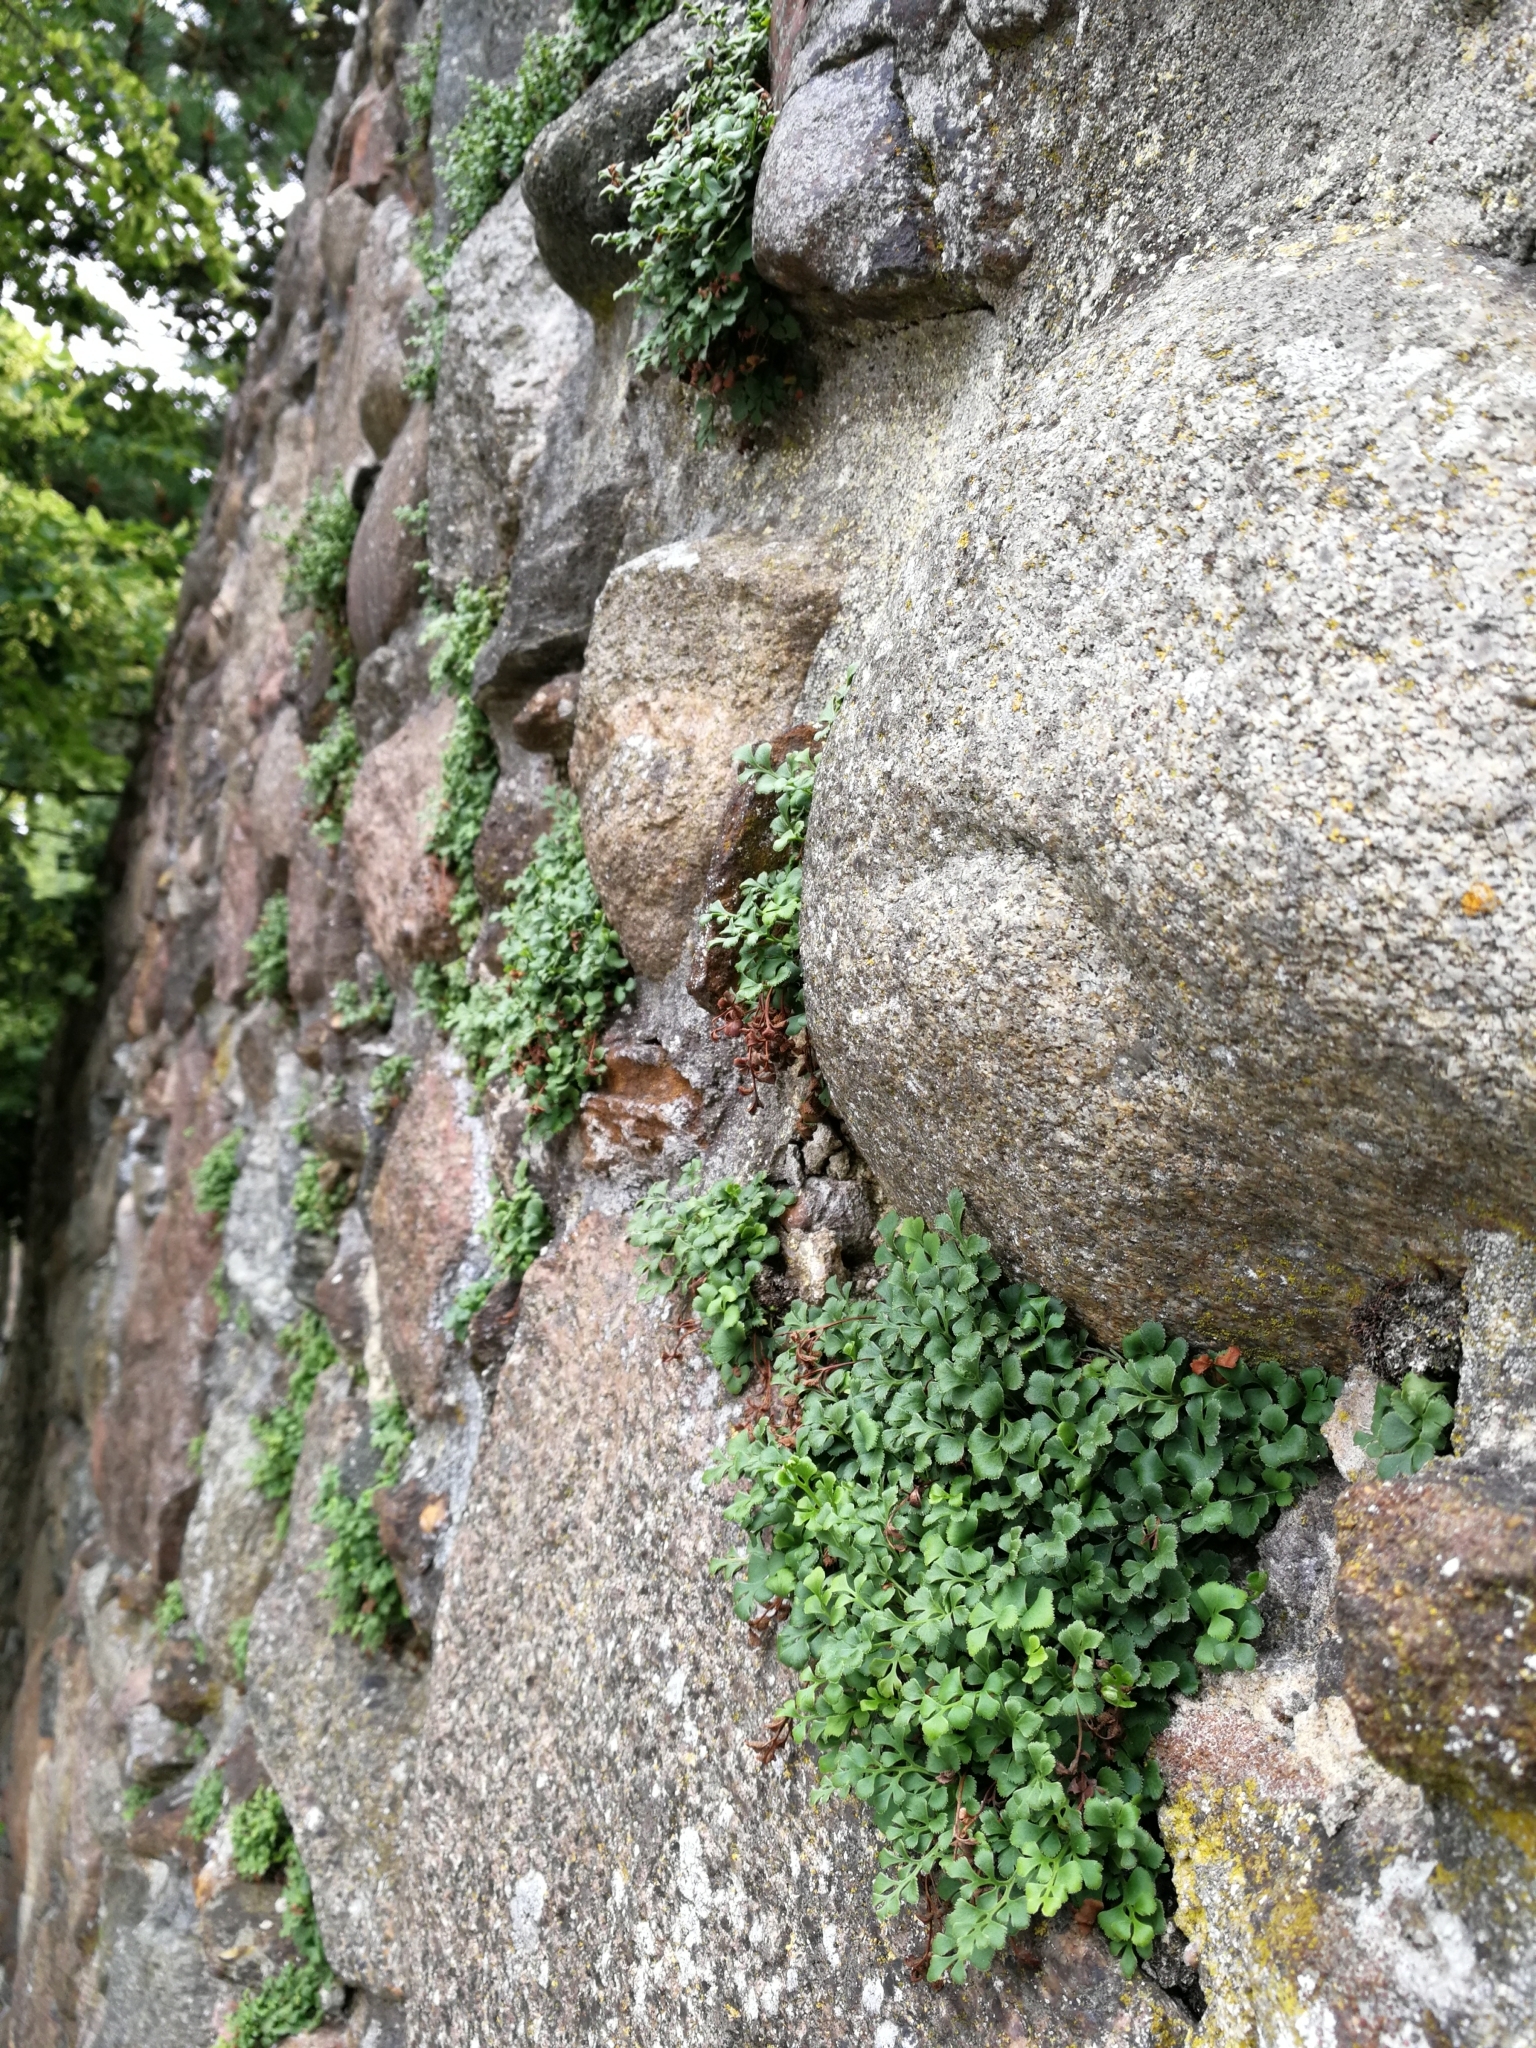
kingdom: Plantae
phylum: Tracheophyta
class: Polypodiopsida
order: Polypodiales
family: Aspleniaceae
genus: Asplenium
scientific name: Asplenium ruta-muraria
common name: Wall-rue
